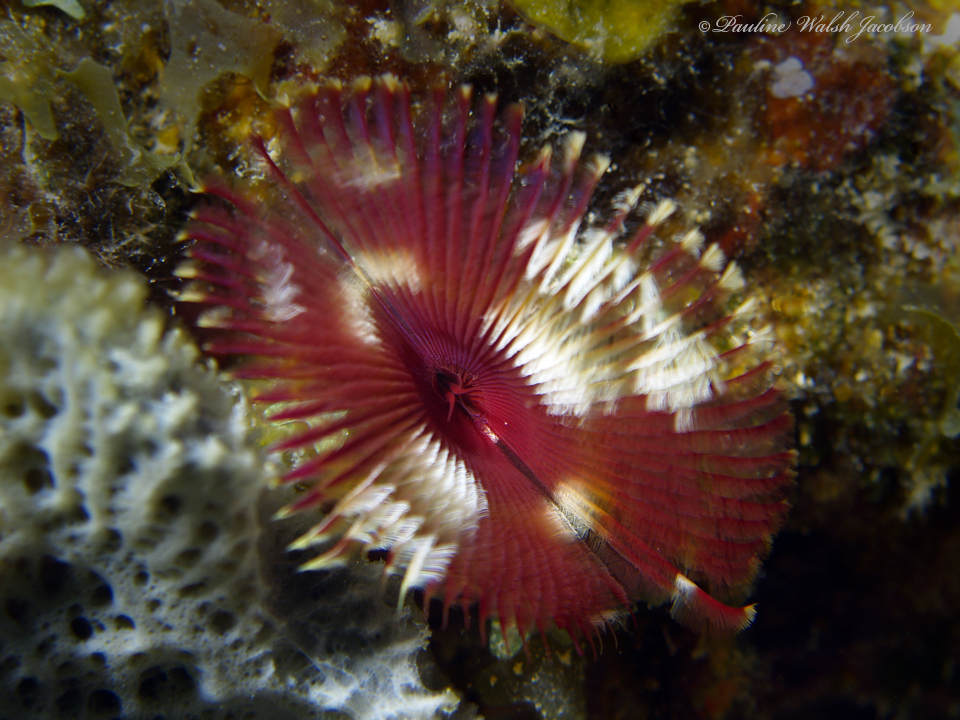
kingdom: Animalia
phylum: Annelida
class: Polychaeta
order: Sabellida
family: Sabellidae
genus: Anamobaea
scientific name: Anamobaea orstedii
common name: Split-crown feather duster
